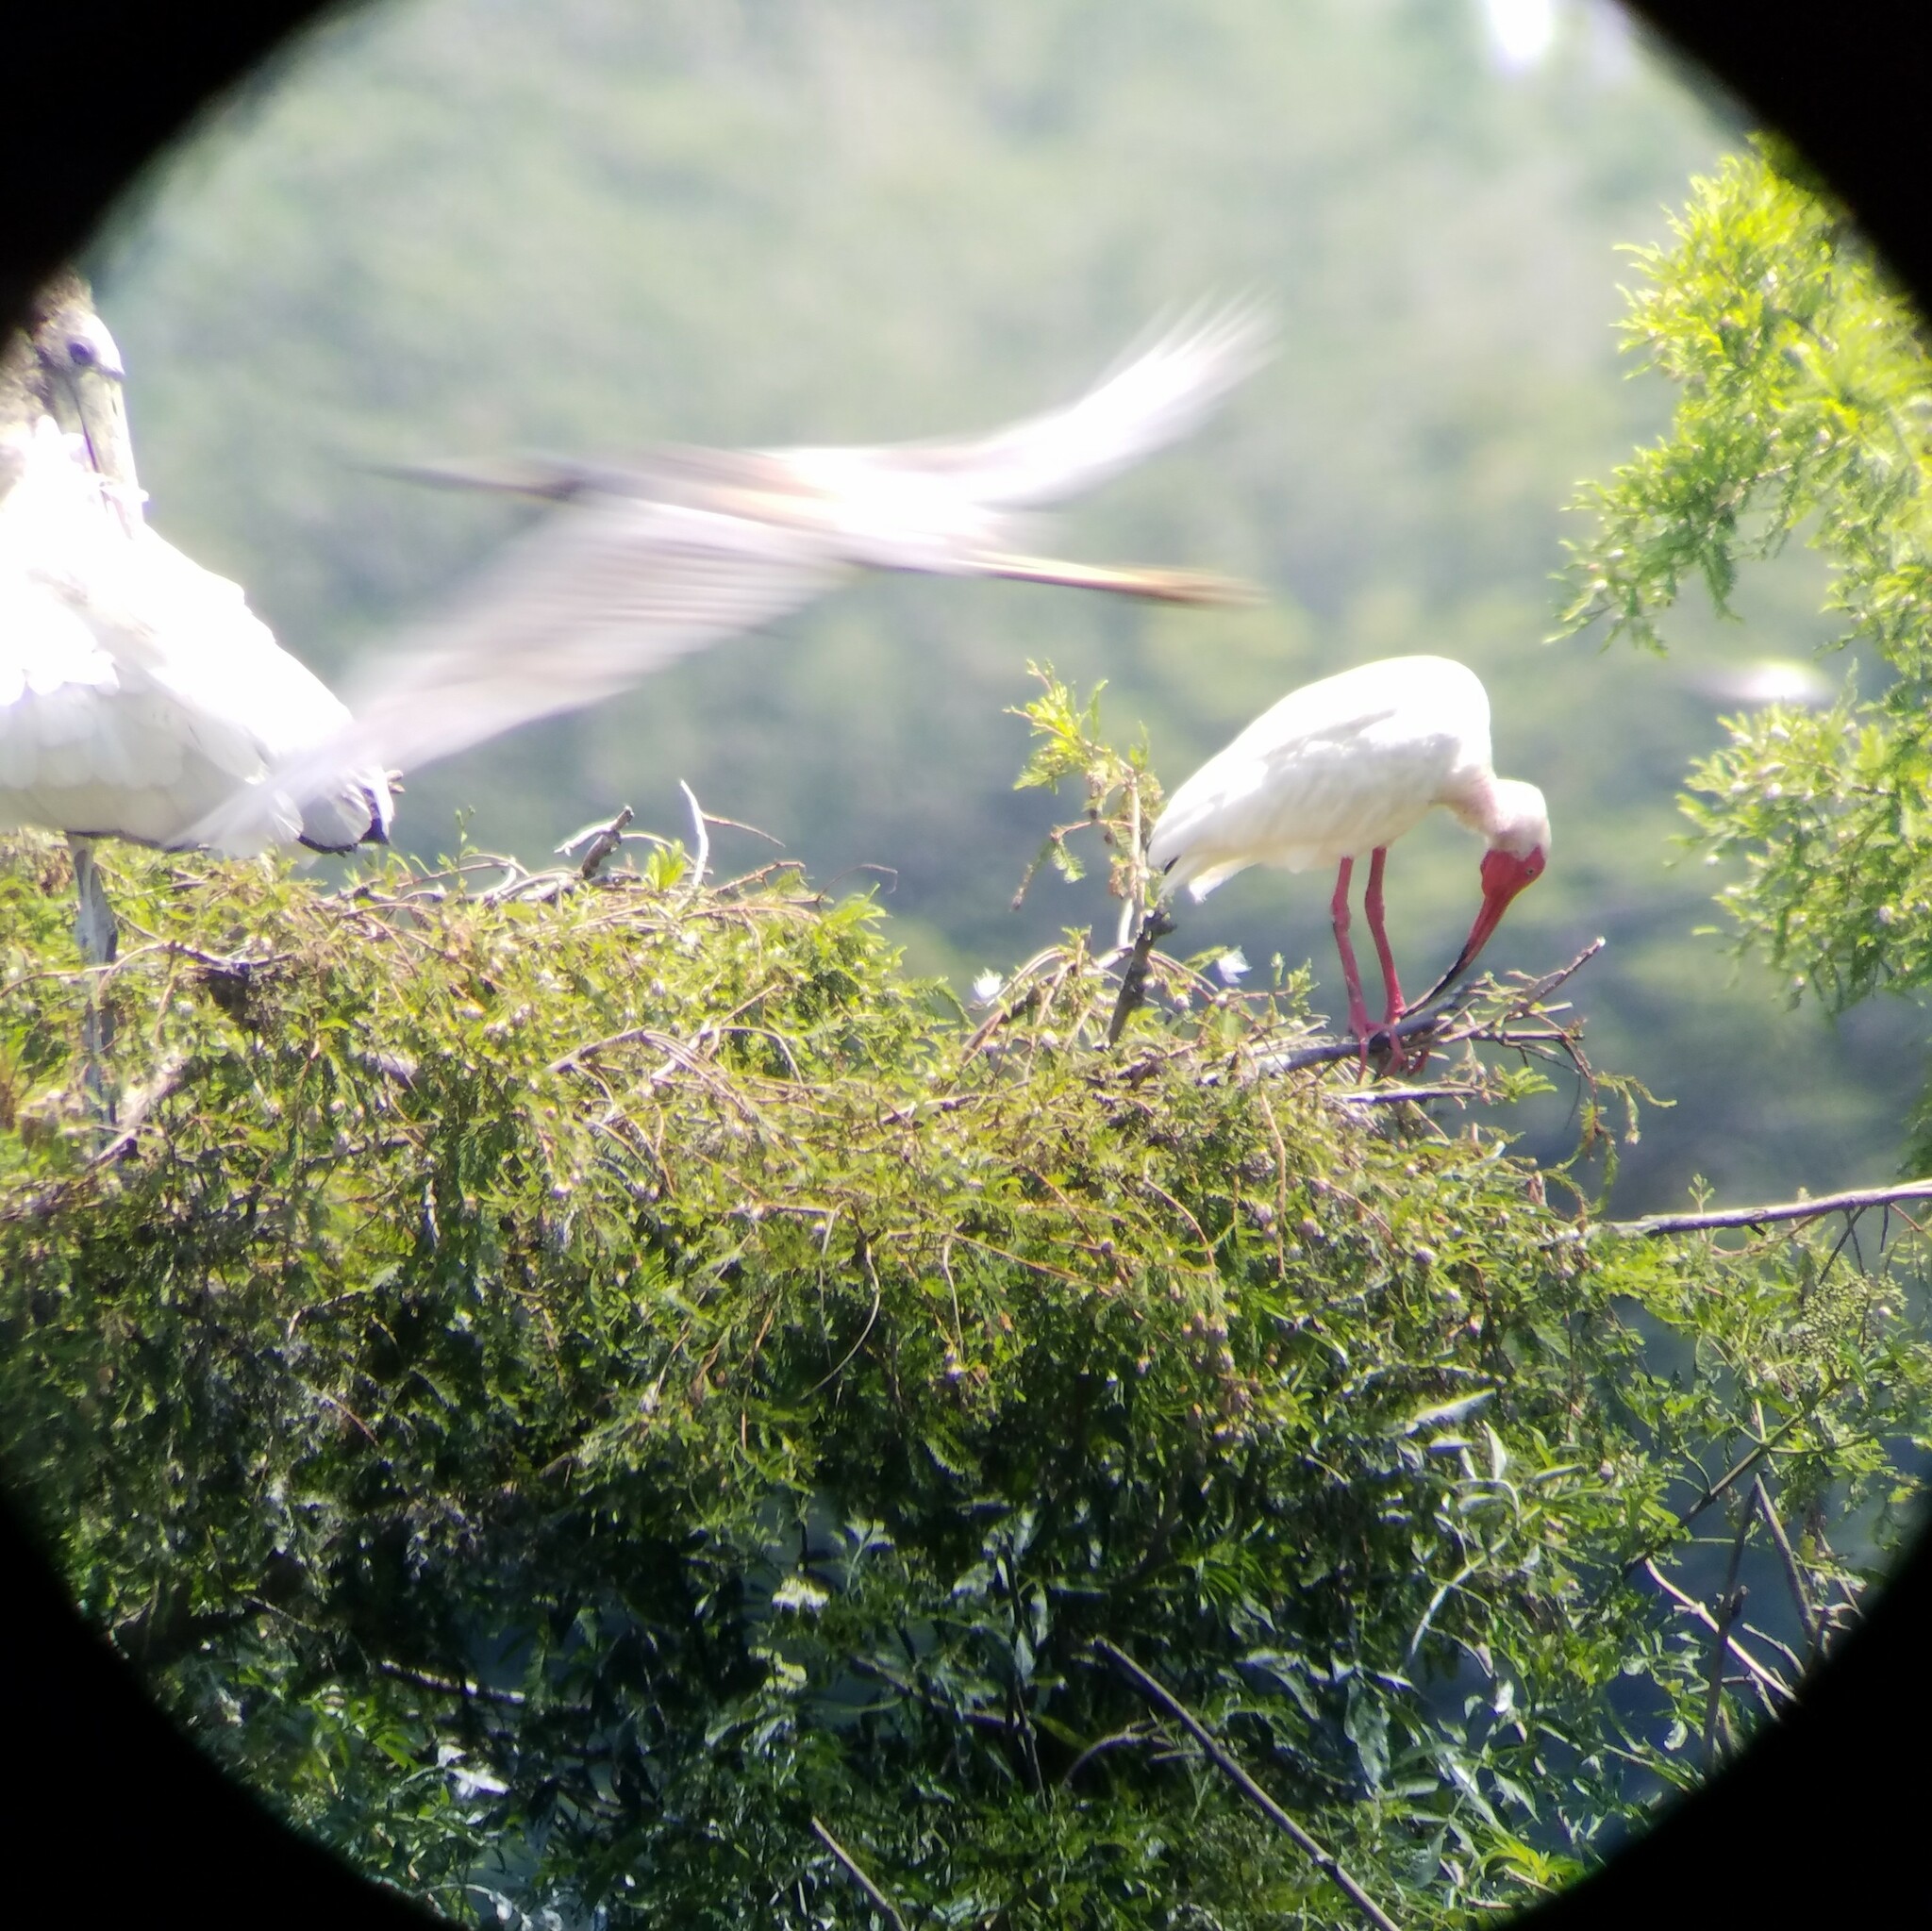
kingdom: Animalia
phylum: Chordata
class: Aves
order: Pelecaniformes
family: Threskiornithidae
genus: Eudocimus
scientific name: Eudocimus albus
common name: White ibis
